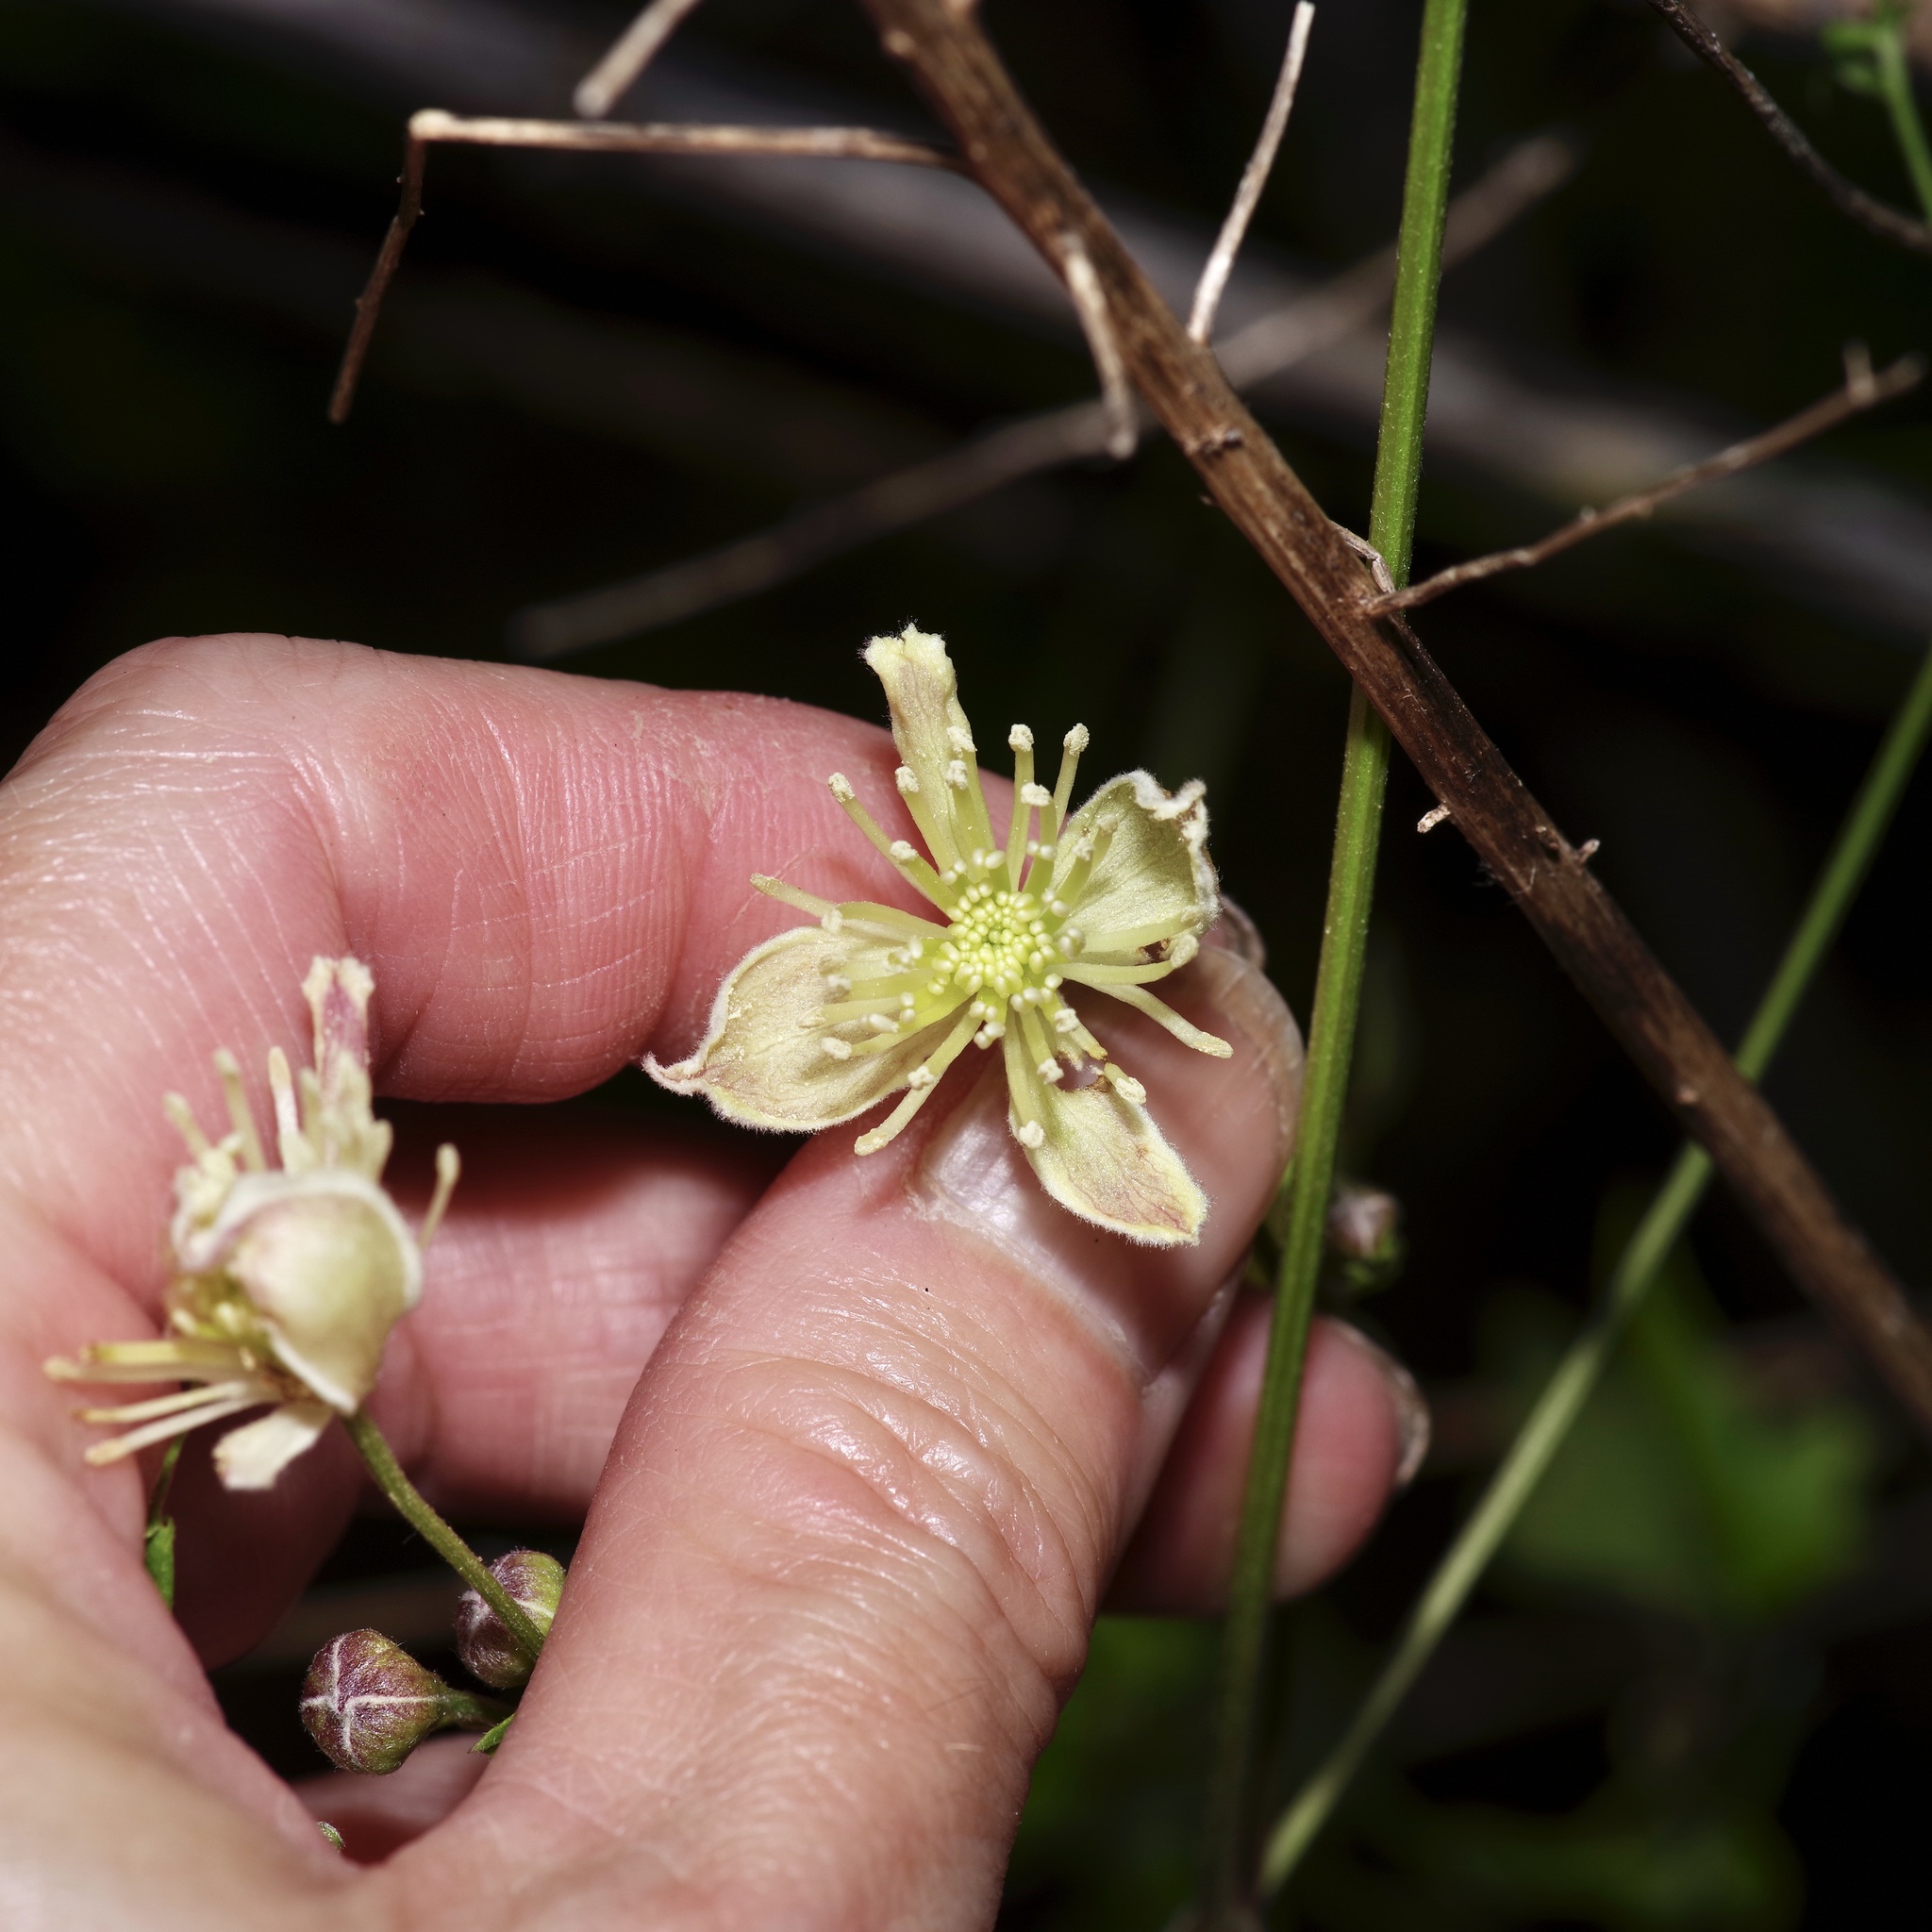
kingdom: Plantae
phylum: Tracheophyta
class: Magnoliopsida
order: Ranunculales
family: Ranunculaceae
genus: Clematis
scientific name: Clematis drummondii
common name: Texas virgin's bower
